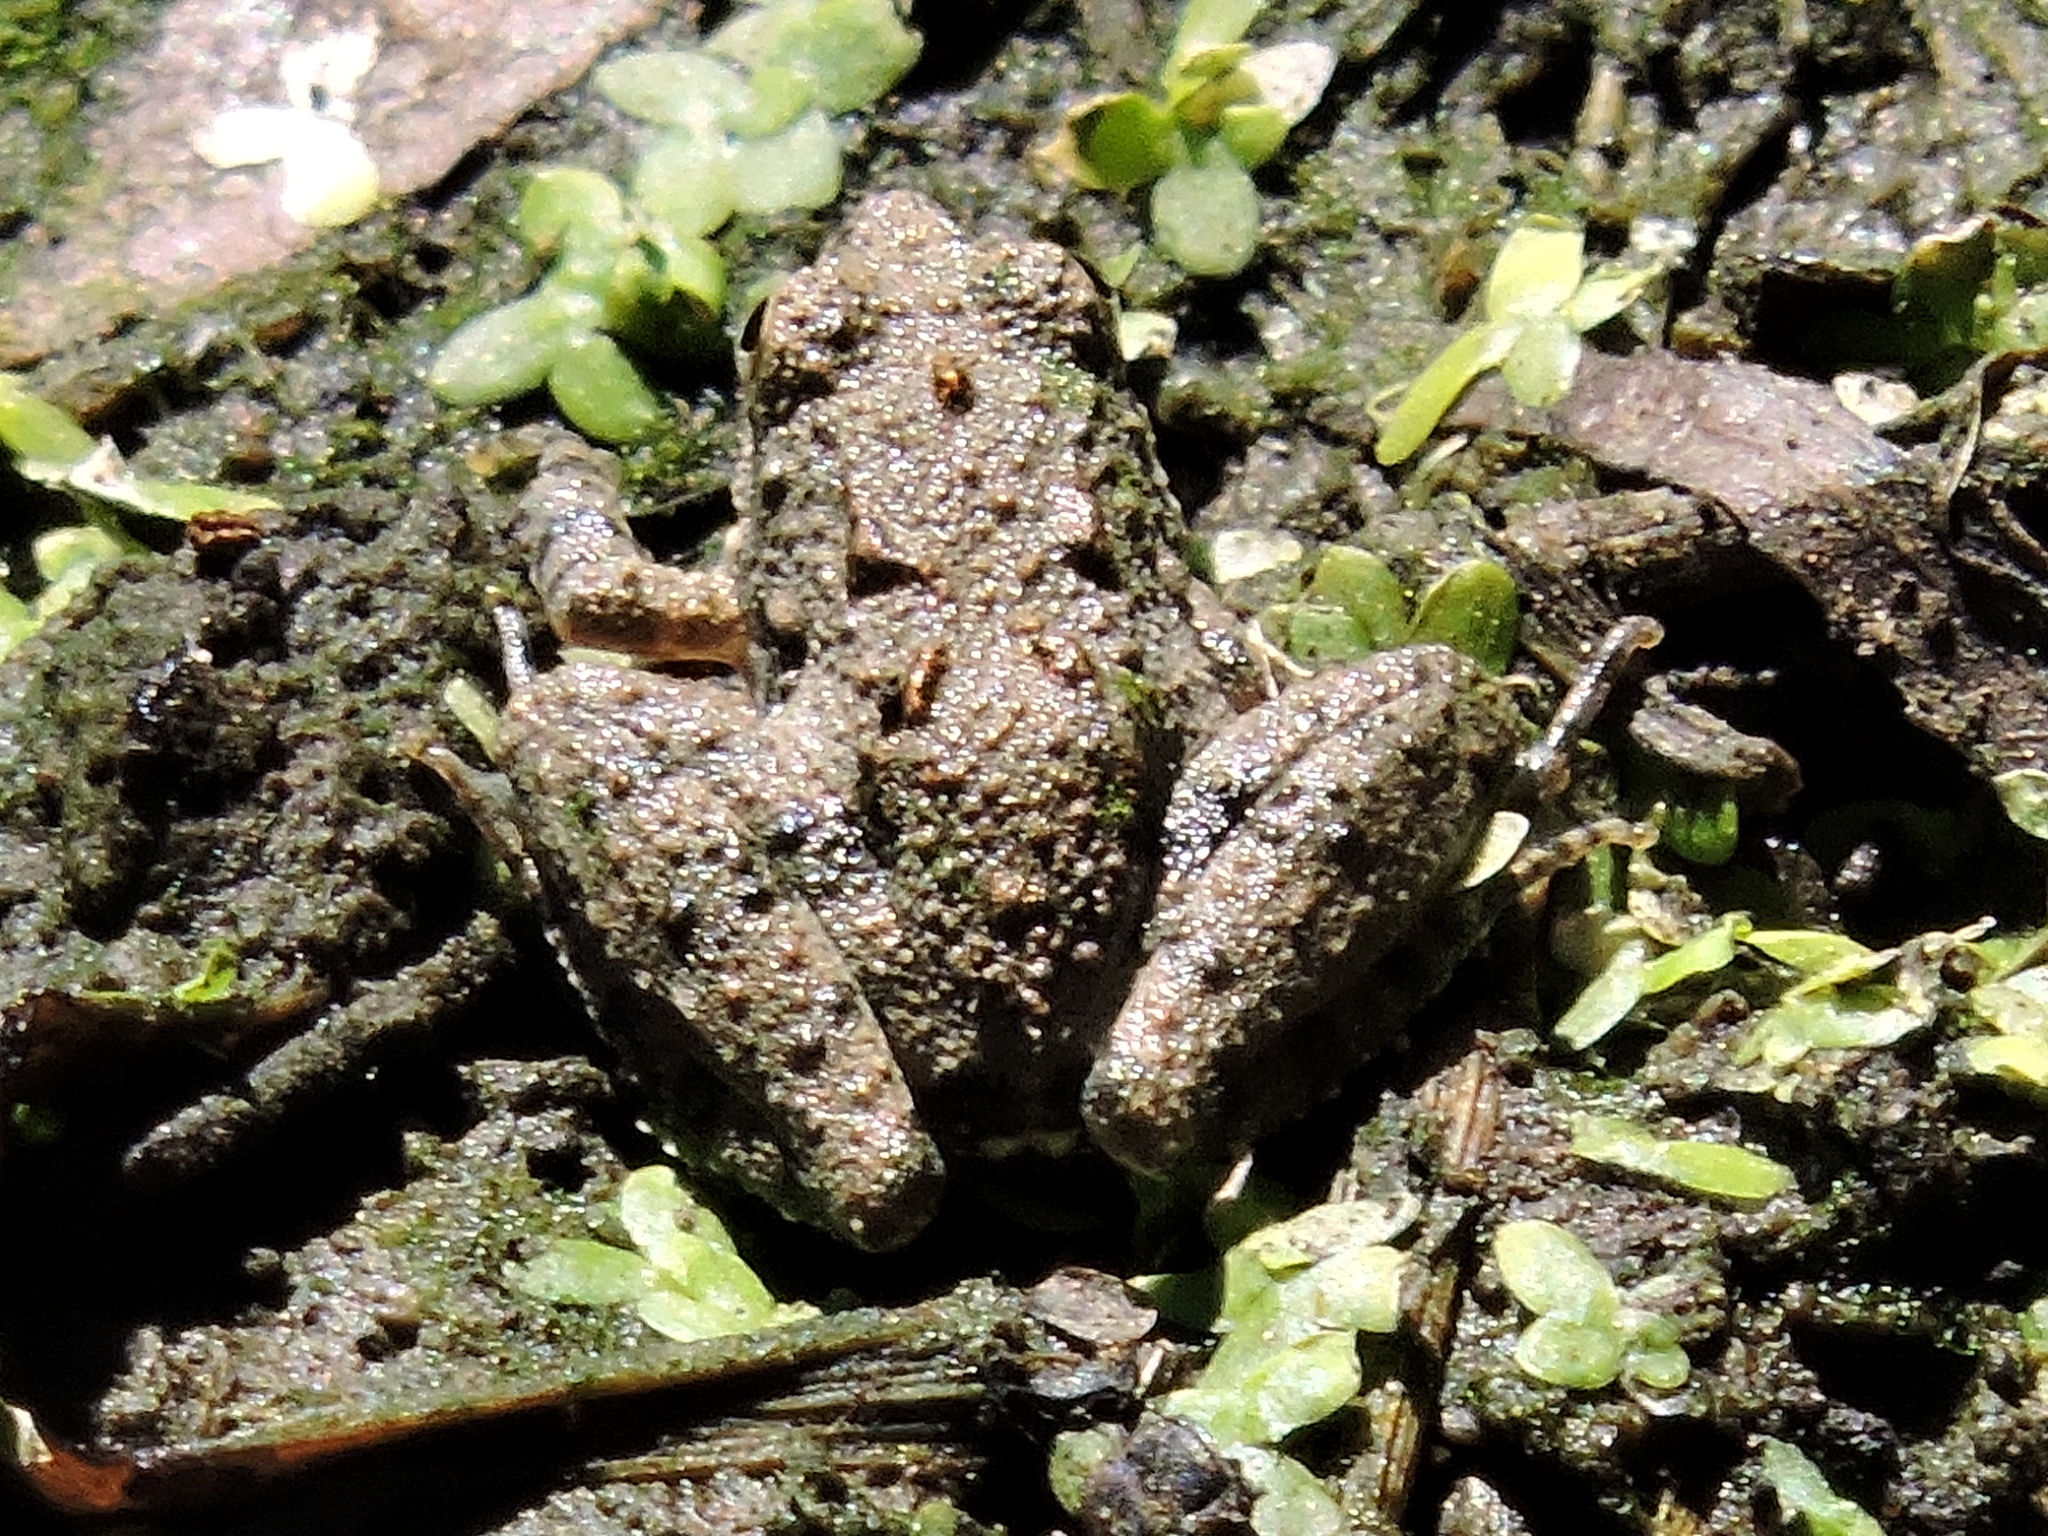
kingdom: Animalia
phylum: Chordata
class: Amphibia
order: Anura
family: Hylidae
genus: Acris
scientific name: Acris blanchardi
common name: Blanchard's cricket frog
